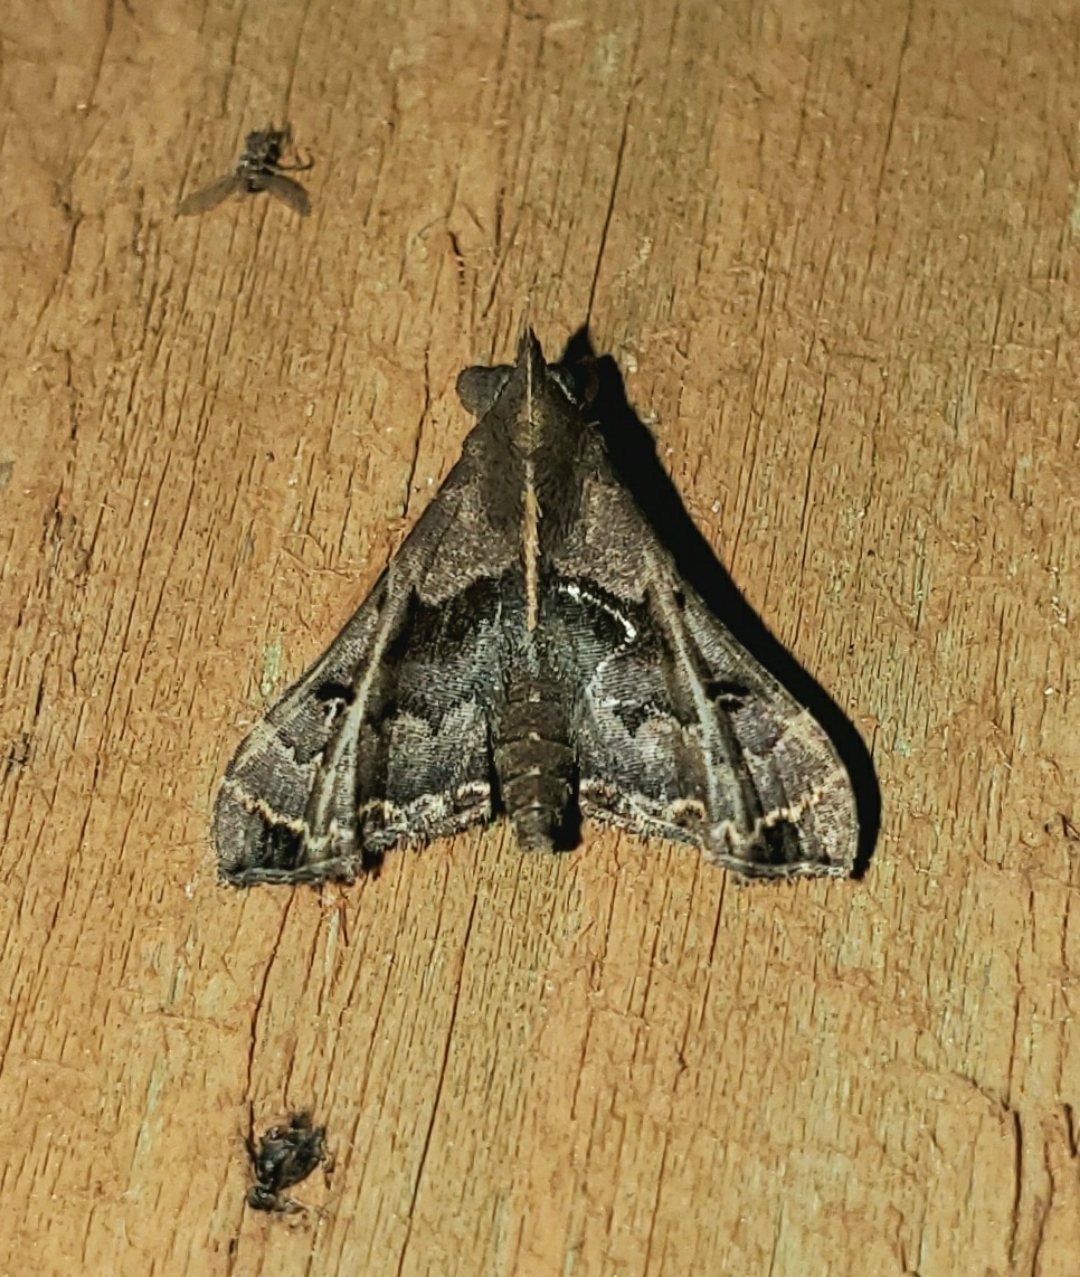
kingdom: Animalia
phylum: Arthropoda
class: Insecta
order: Lepidoptera
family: Erebidae
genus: Palthis
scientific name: Palthis asopialis
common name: Faint-spotted palthis moth
